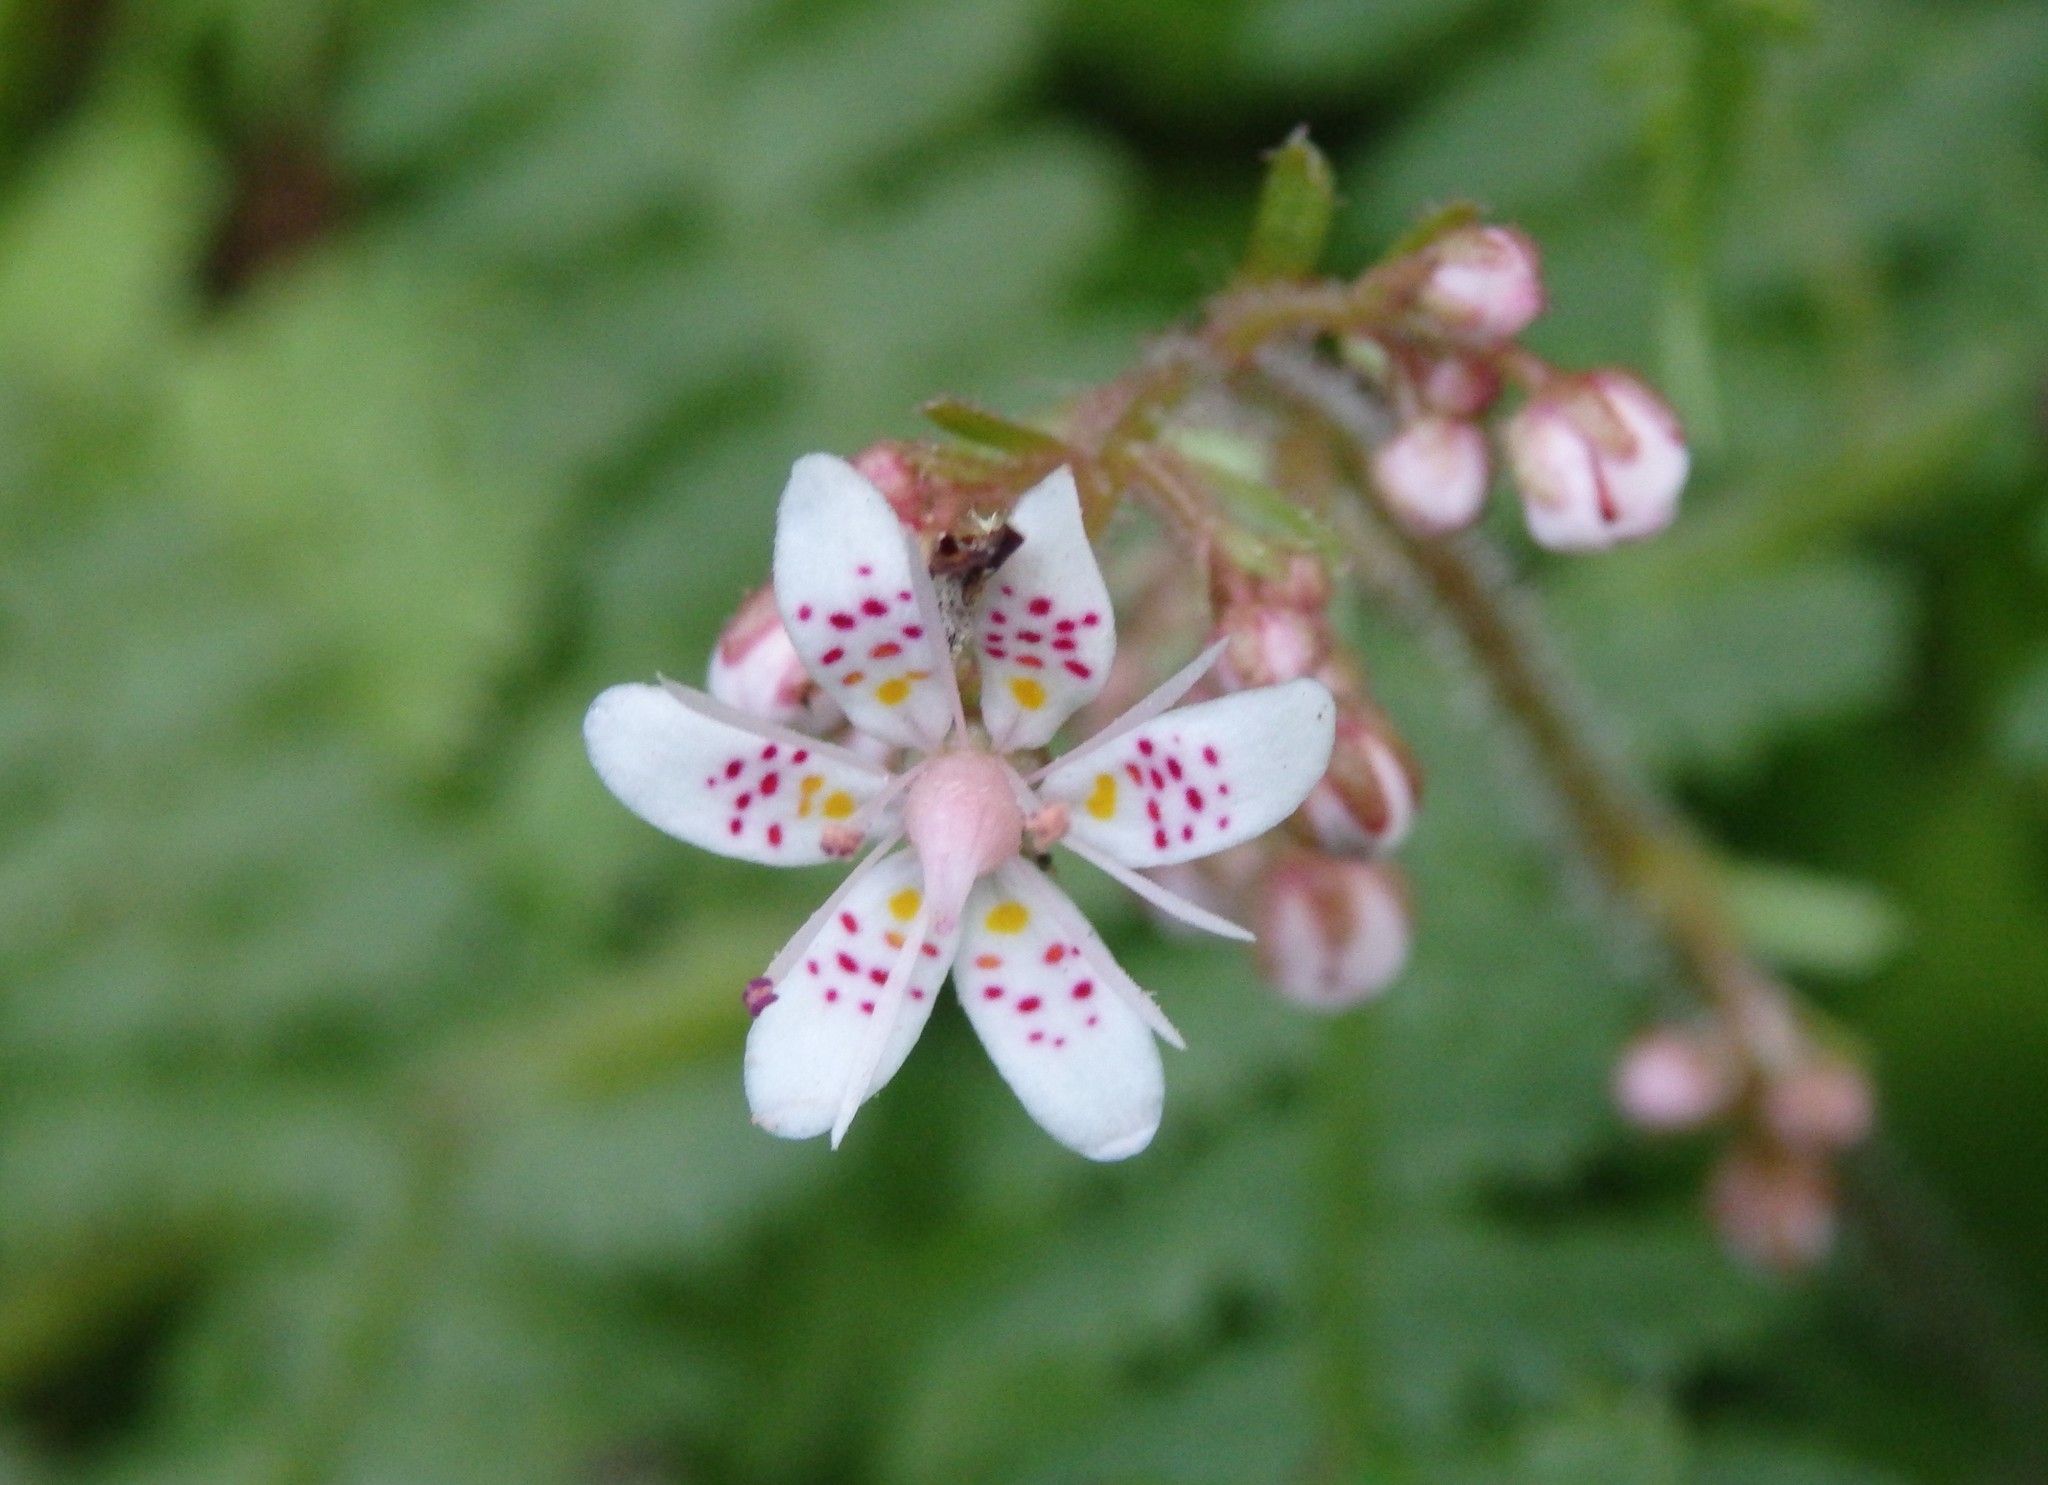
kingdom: Plantae
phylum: Tracheophyta
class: Magnoliopsida
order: Saxifragales
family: Saxifragaceae
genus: Saxifraga
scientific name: Saxifraga spathularis
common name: St patrick's-cabbage
